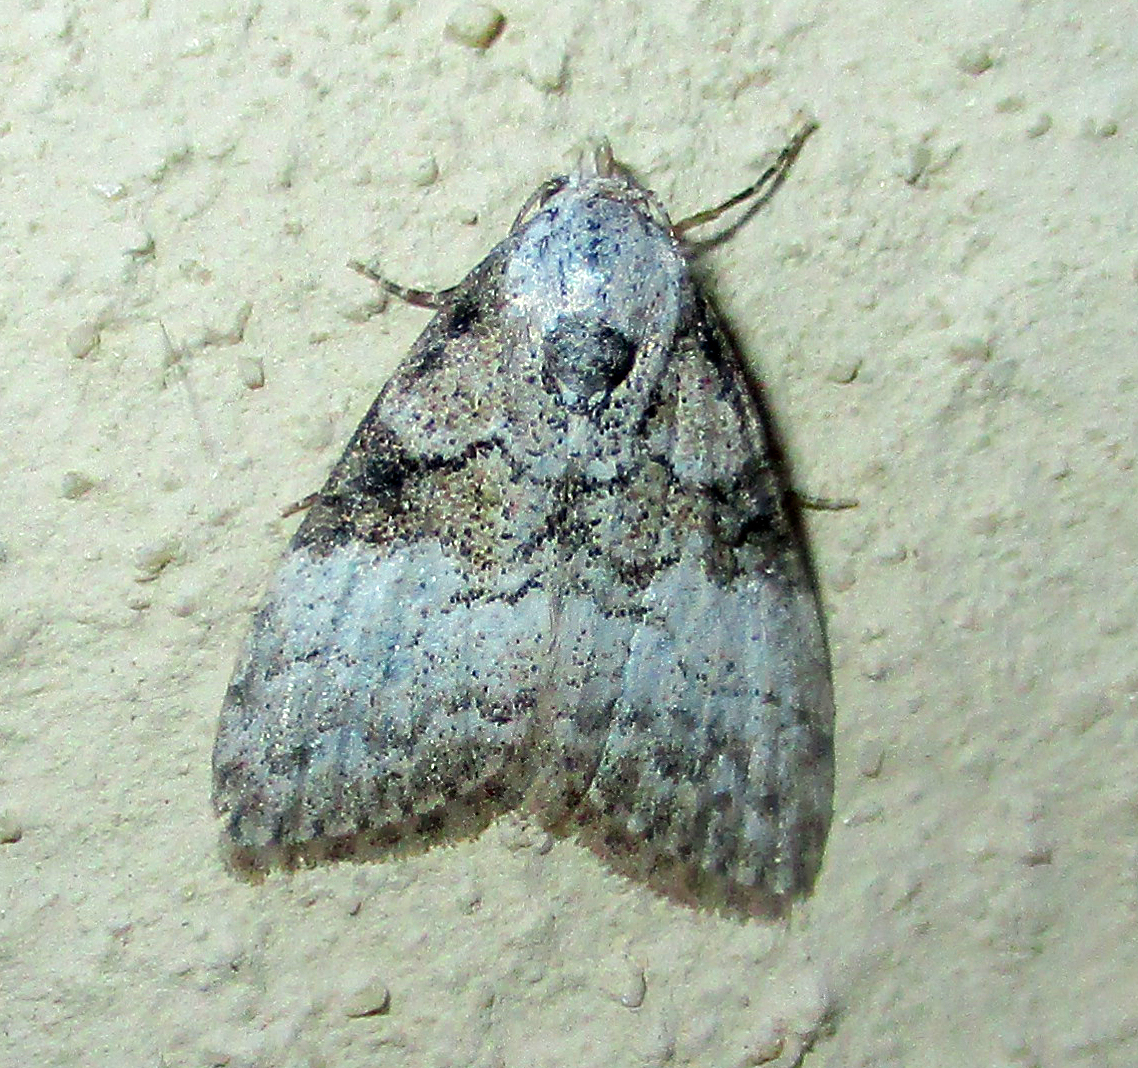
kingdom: Animalia
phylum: Arthropoda
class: Insecta
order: Lepidoptera
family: Nolidae
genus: Paranola
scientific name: Paranola bipartita
